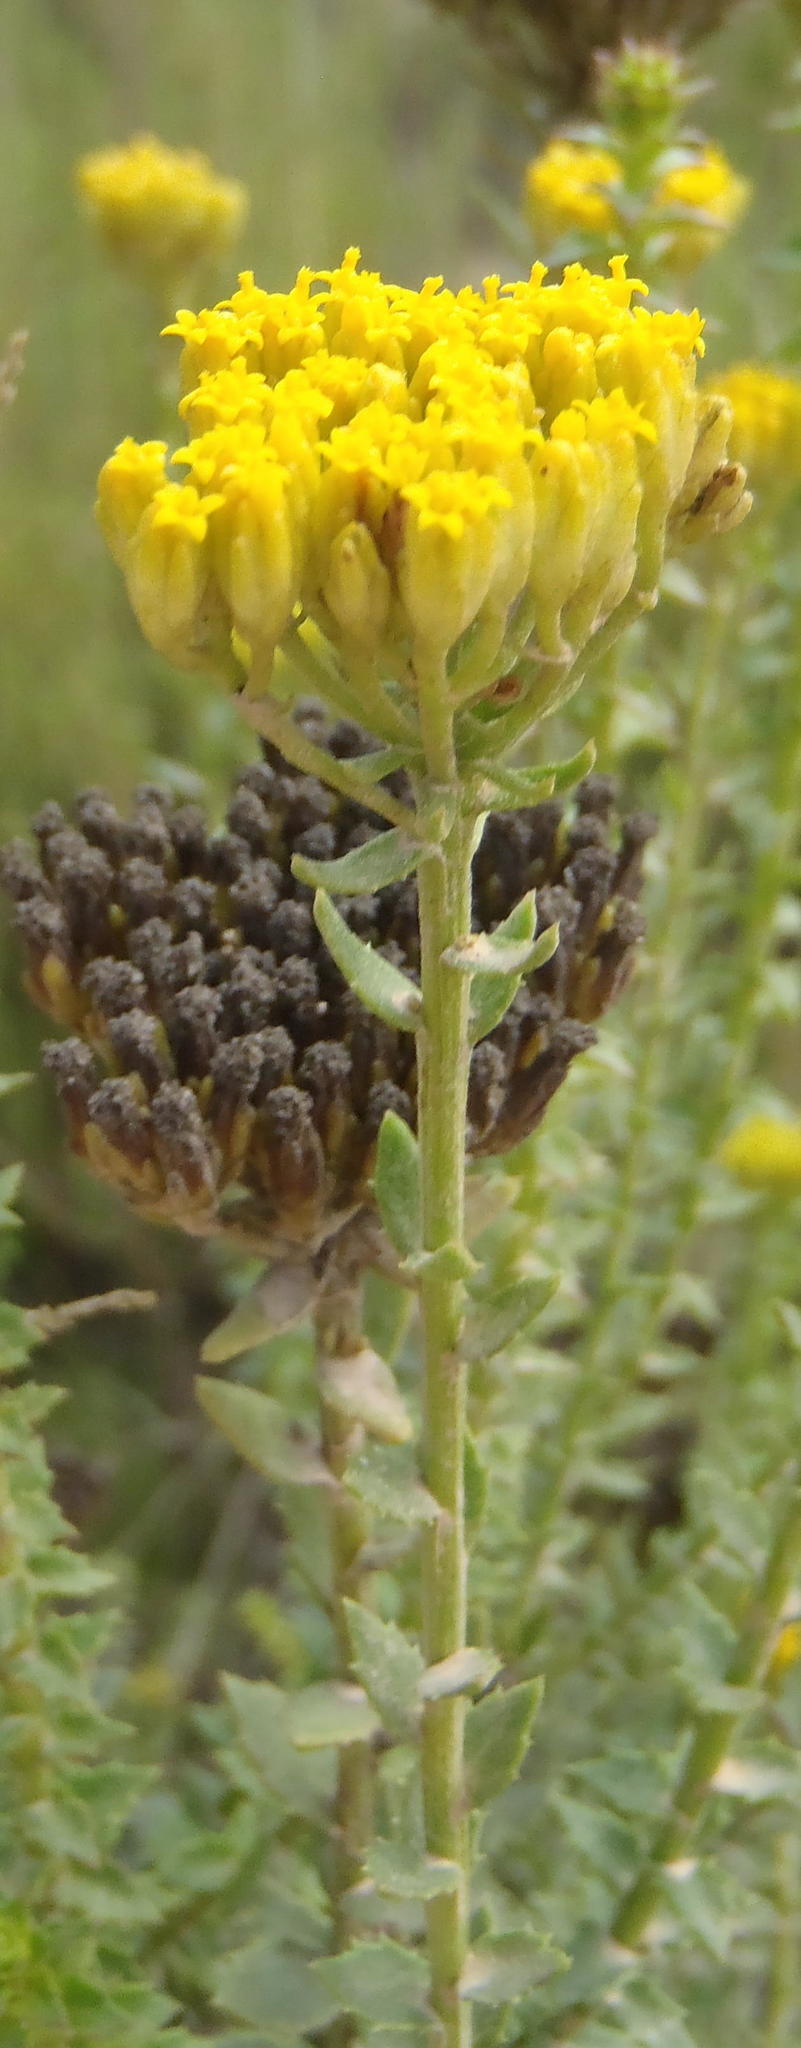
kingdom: Plantae
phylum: Tracheophyta
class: Magnoliopsida
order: Asterales
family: Asteraceae
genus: Athanasia
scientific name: Athanasia dentata
